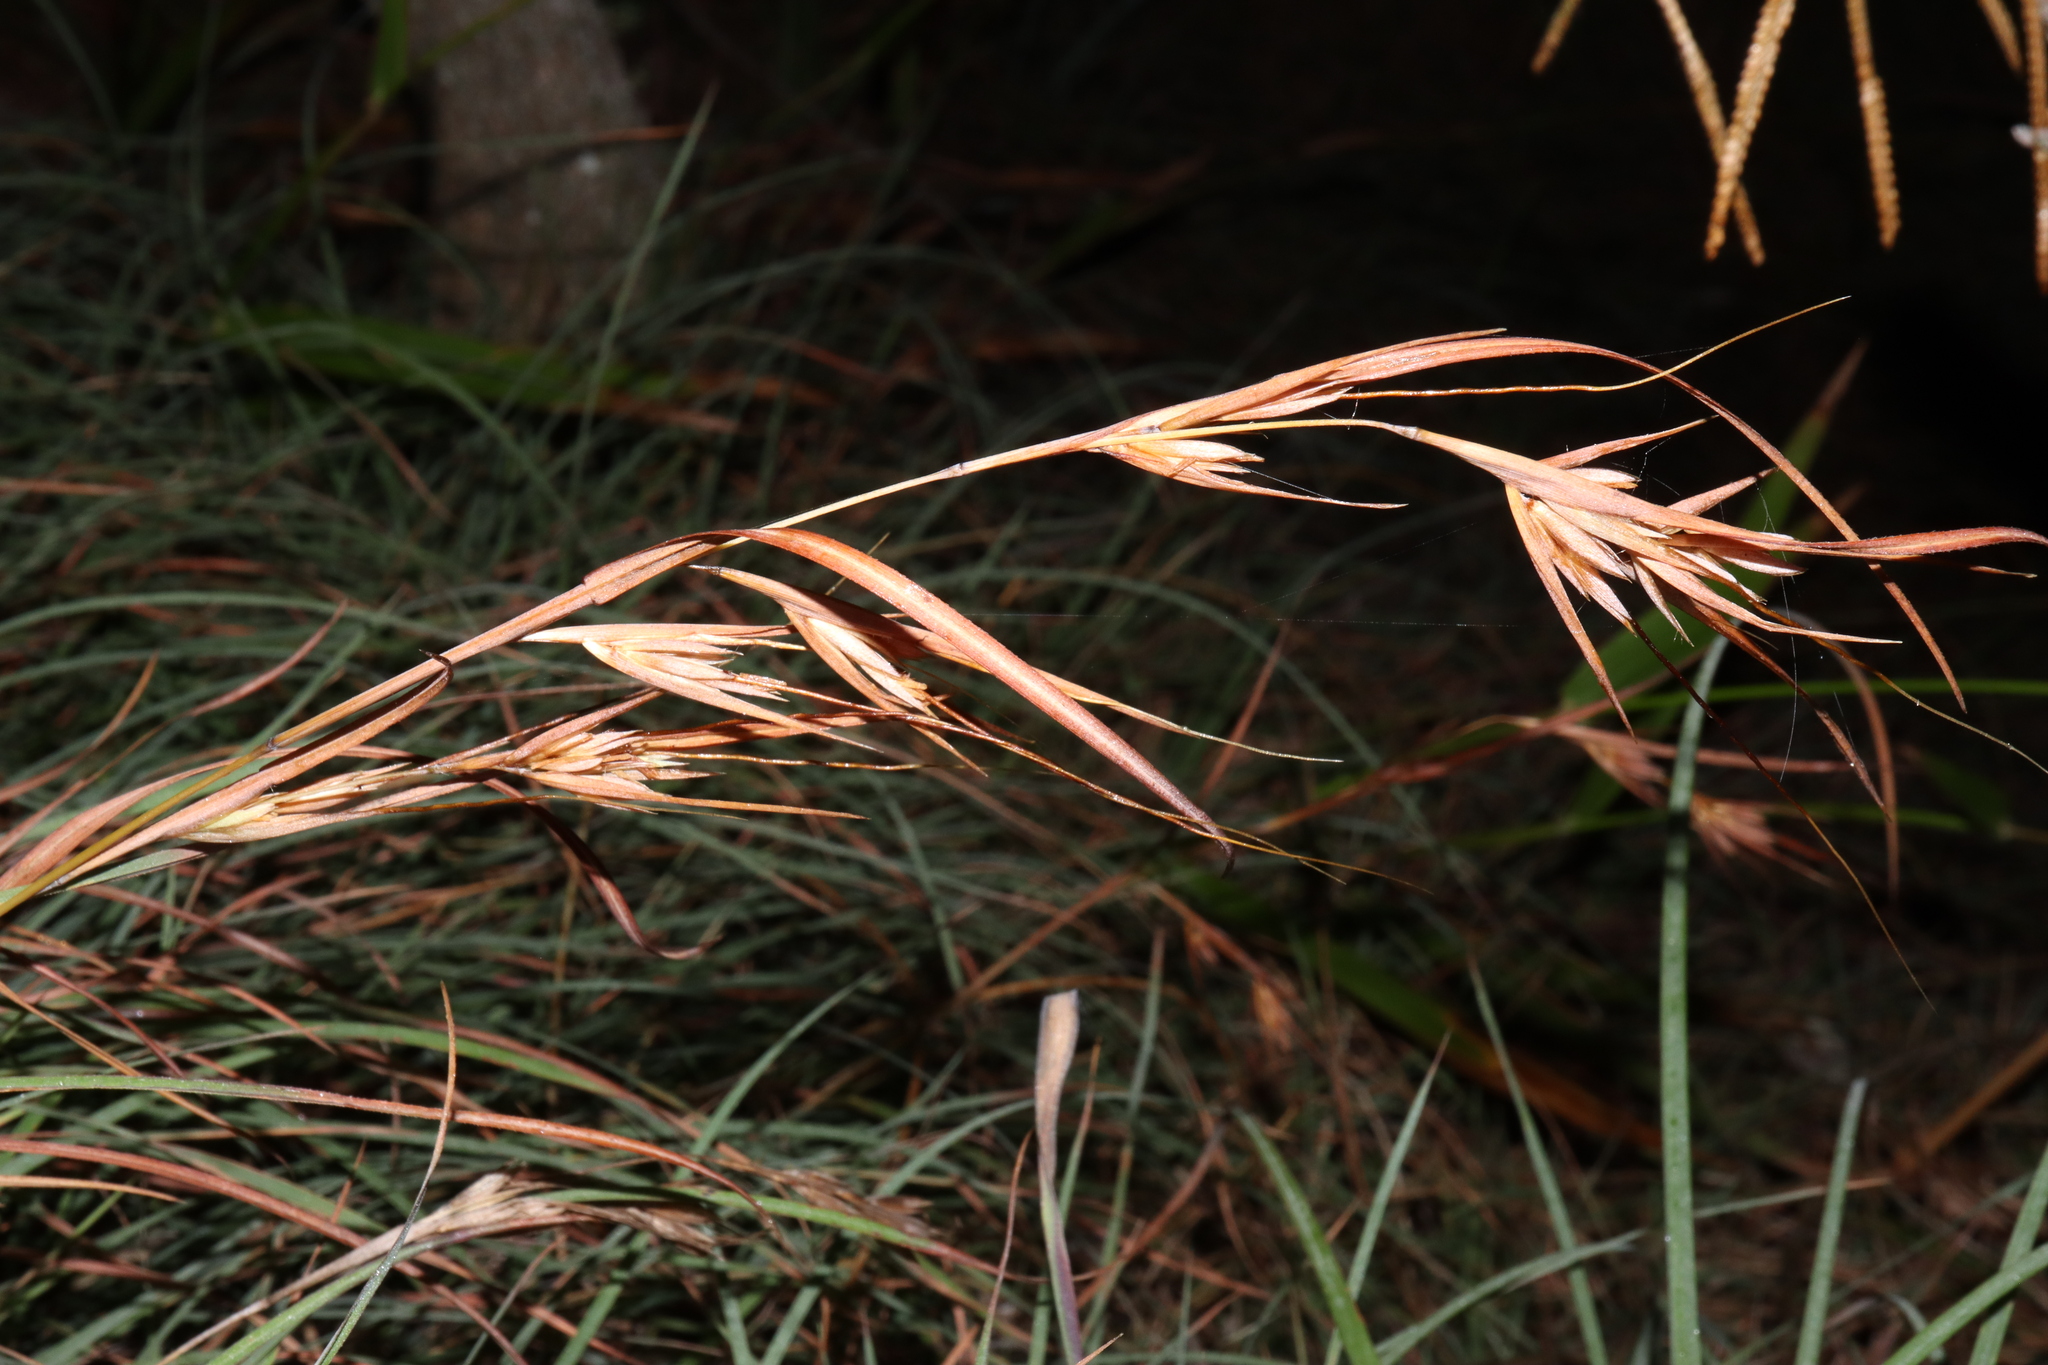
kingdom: Plantae
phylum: Tracheophyta
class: Liliopsida
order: Poales
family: Poaceae
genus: Themeda
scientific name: Themeda triandra
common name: Kangaroo grass
